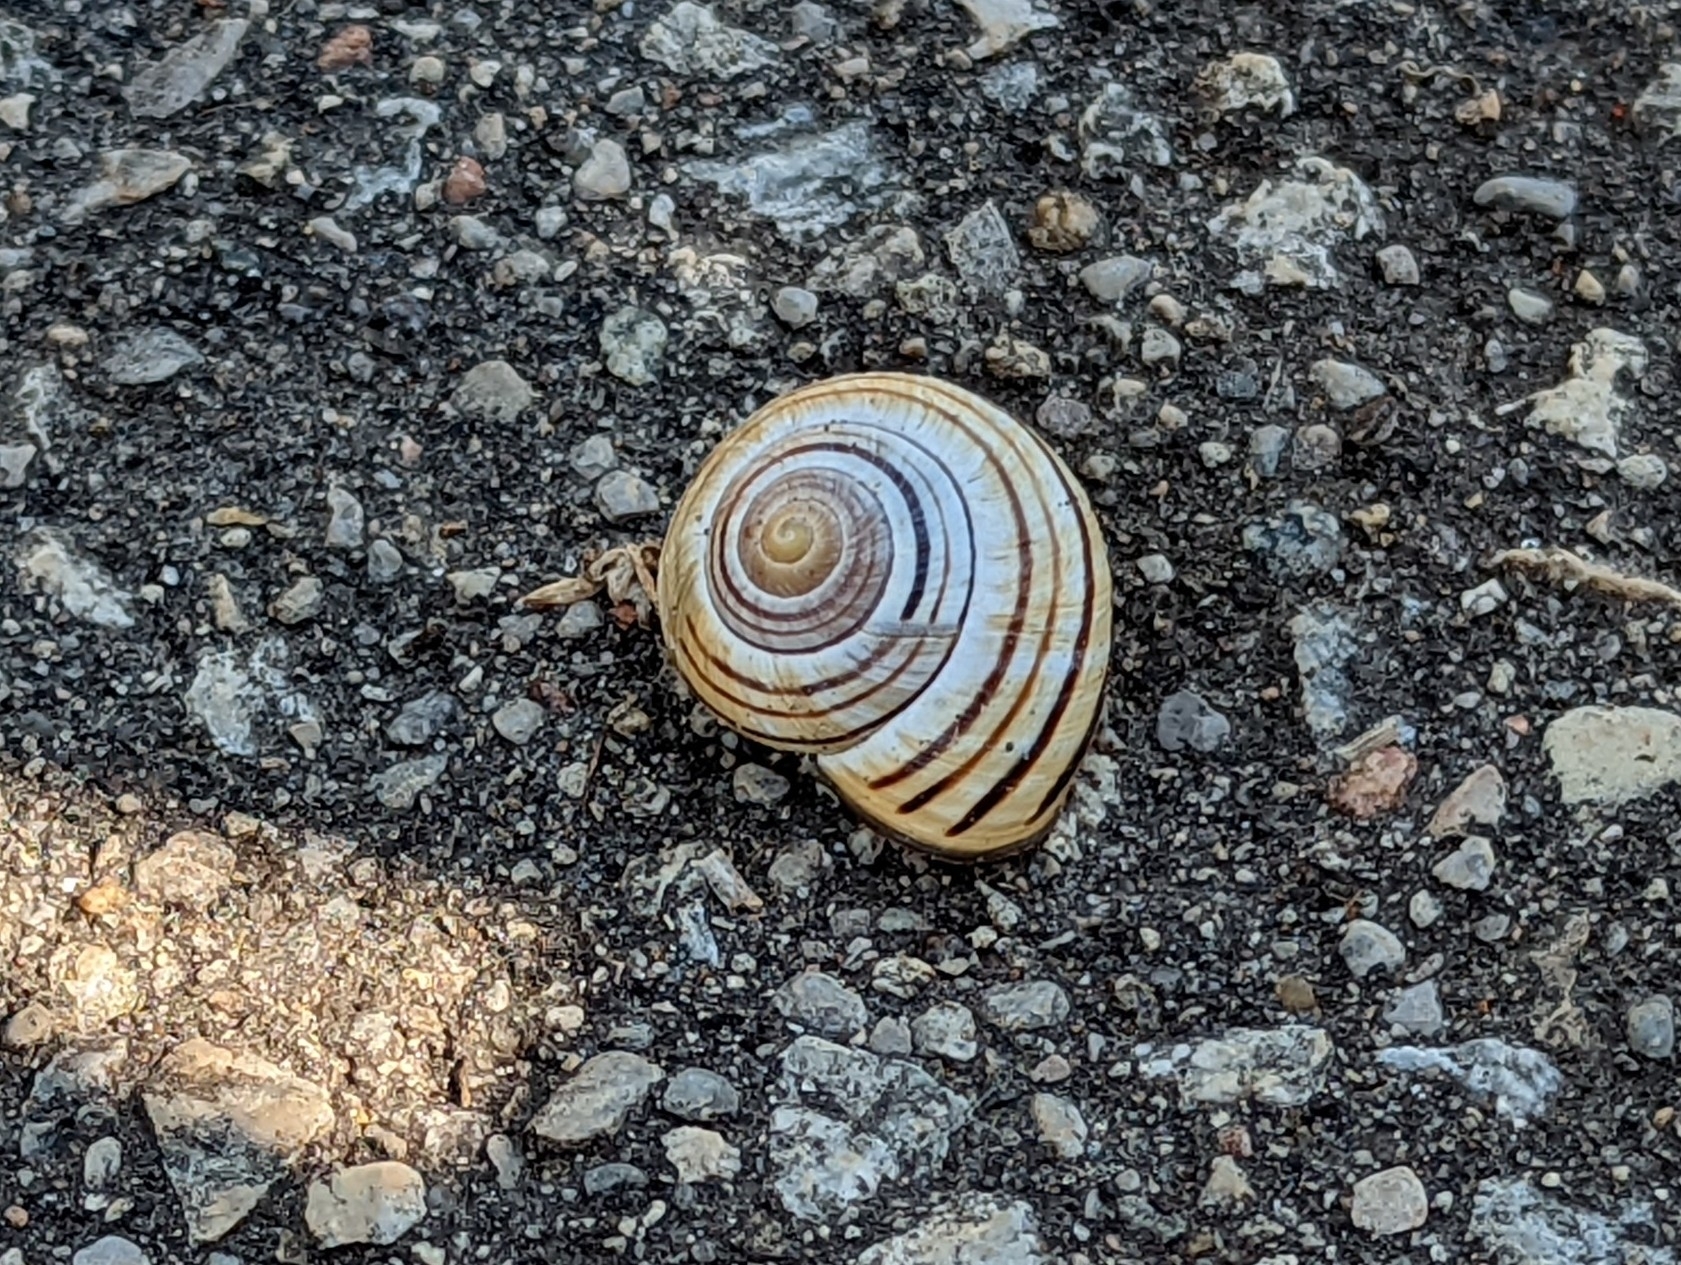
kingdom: Animalia
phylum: Mollusca
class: Gastropoda
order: Stylommatophora
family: Helicidae
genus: Cepaea
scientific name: Cepaea nemoralis
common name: Grovesnail
